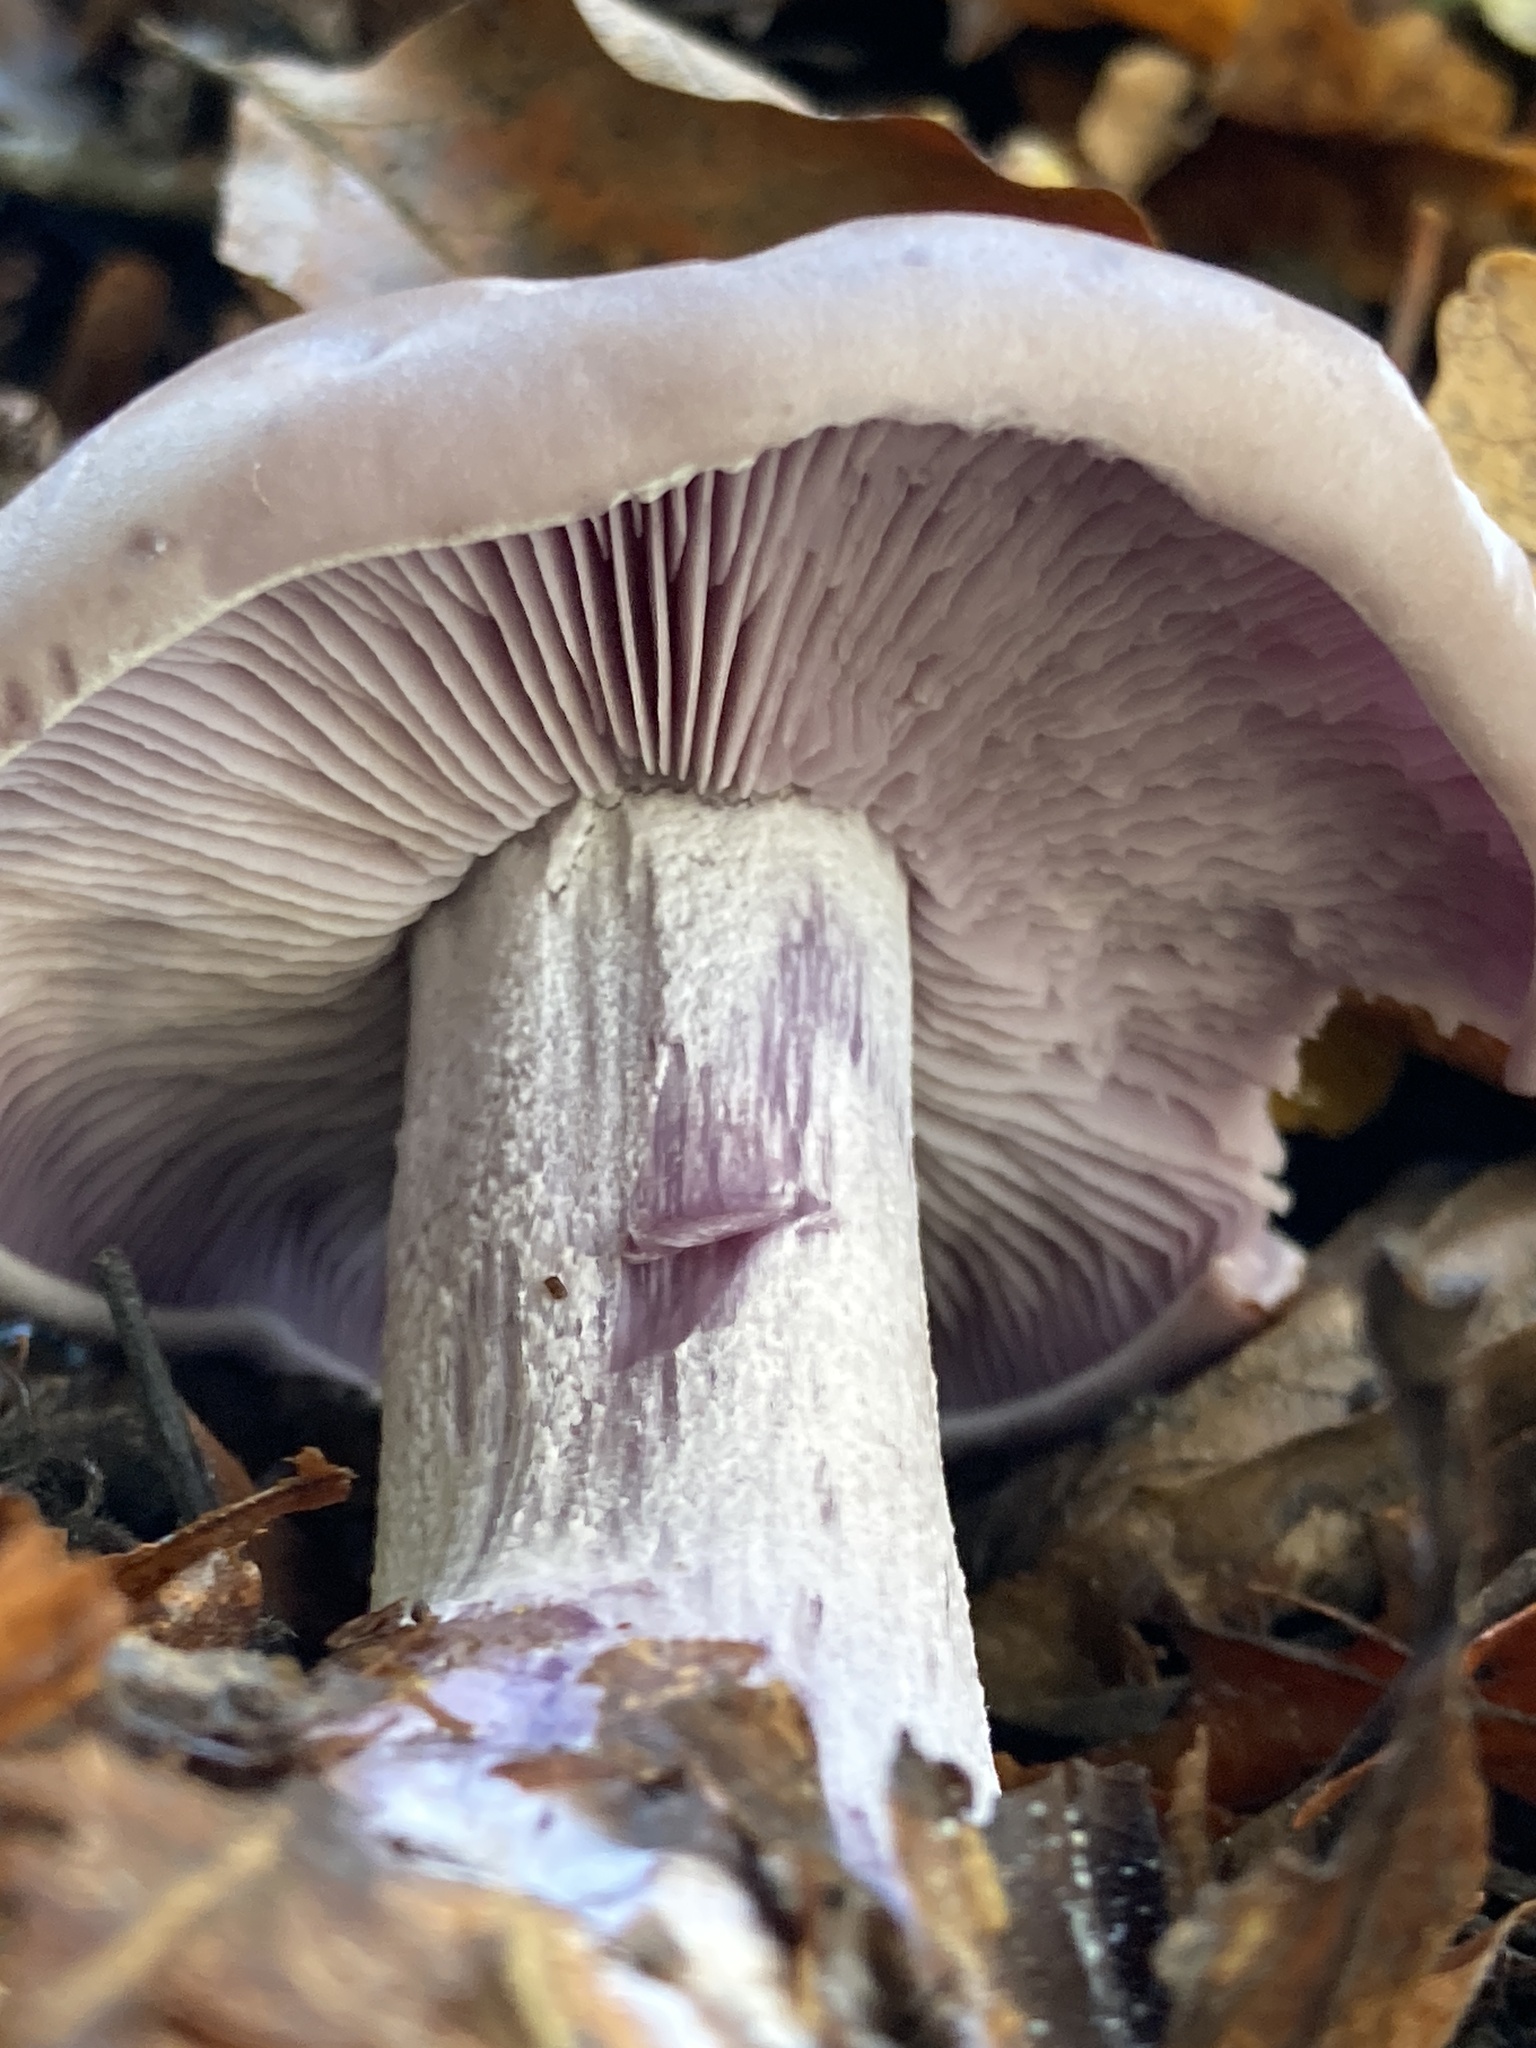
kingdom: Fungi
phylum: Basidiomycota
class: Agaricomycetes
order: Agaricales
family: Tricholomataceae
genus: Collybia
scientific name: Collybia
